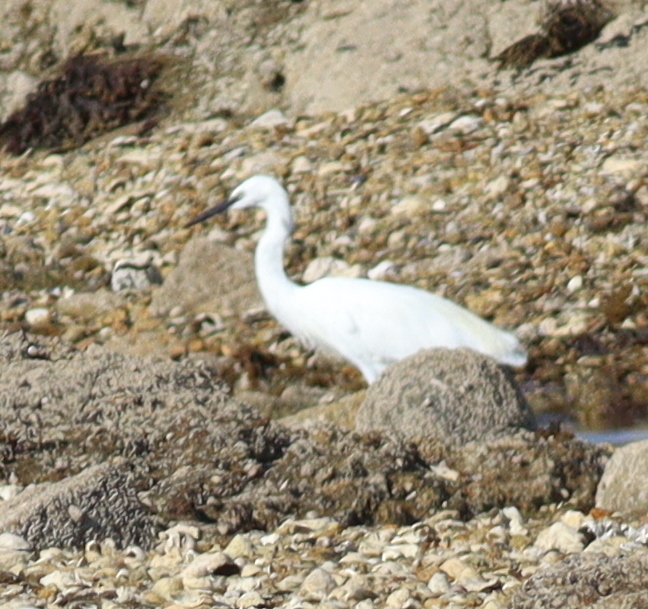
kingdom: Animalia
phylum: Chordata
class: Aves
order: Pelecaniformes
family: Ardeidae
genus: Egretta
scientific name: Egretta garzetta
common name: Little egret
